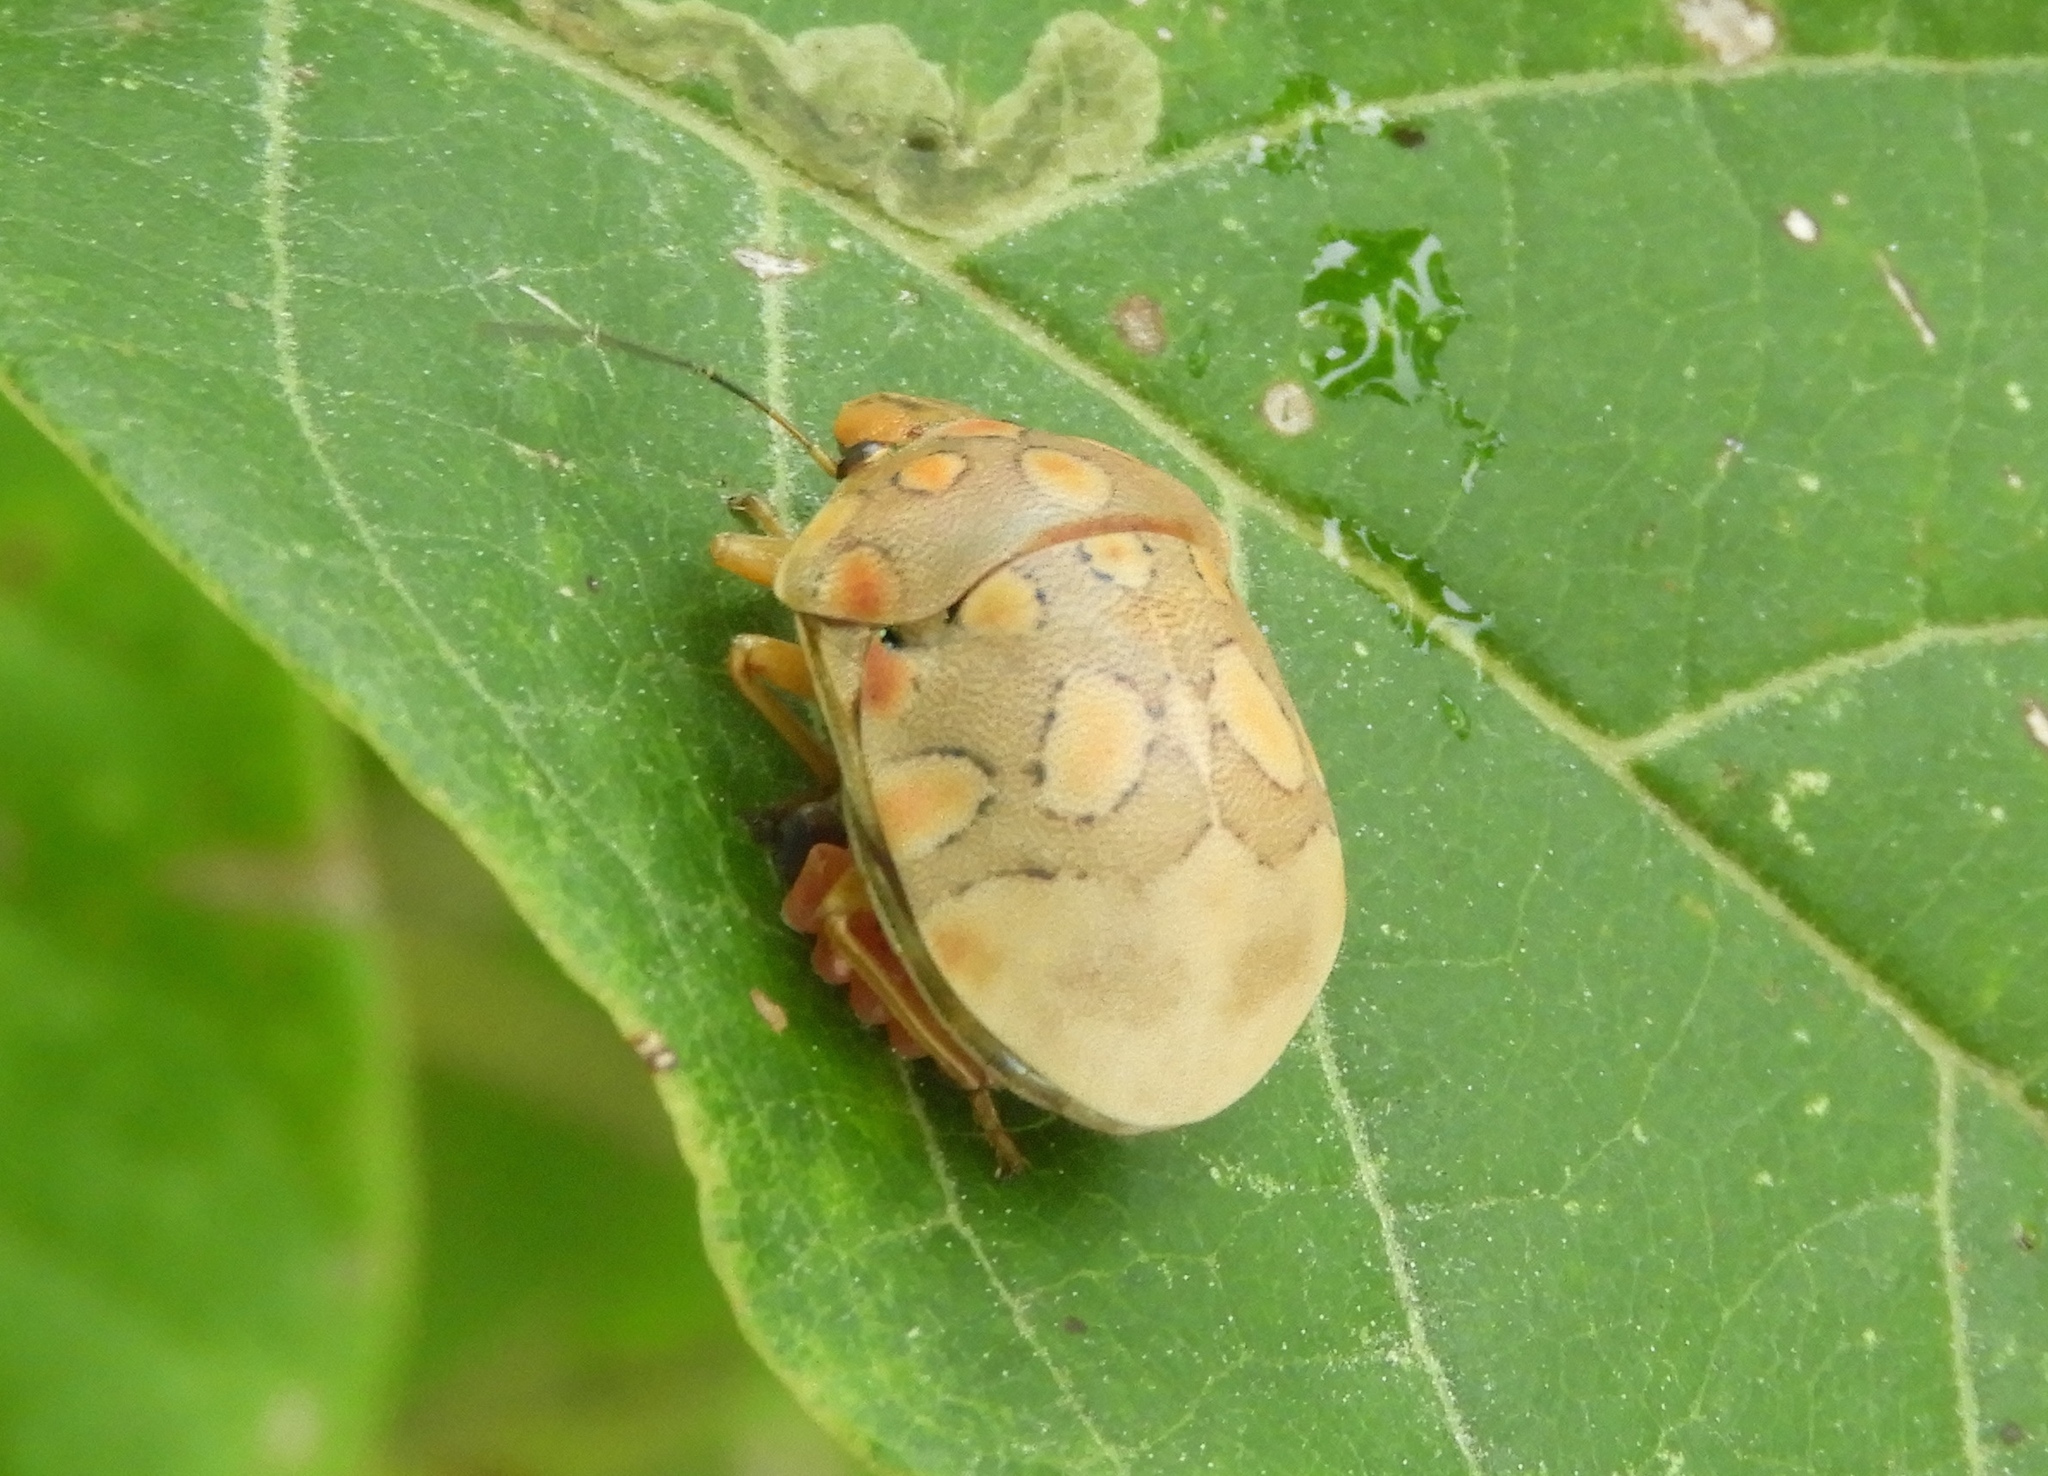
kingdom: Animalia
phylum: Arthropoda
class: Insecta
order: Hemiptera
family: Scutelleridae
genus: Pachycoris
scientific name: Pachycoris
